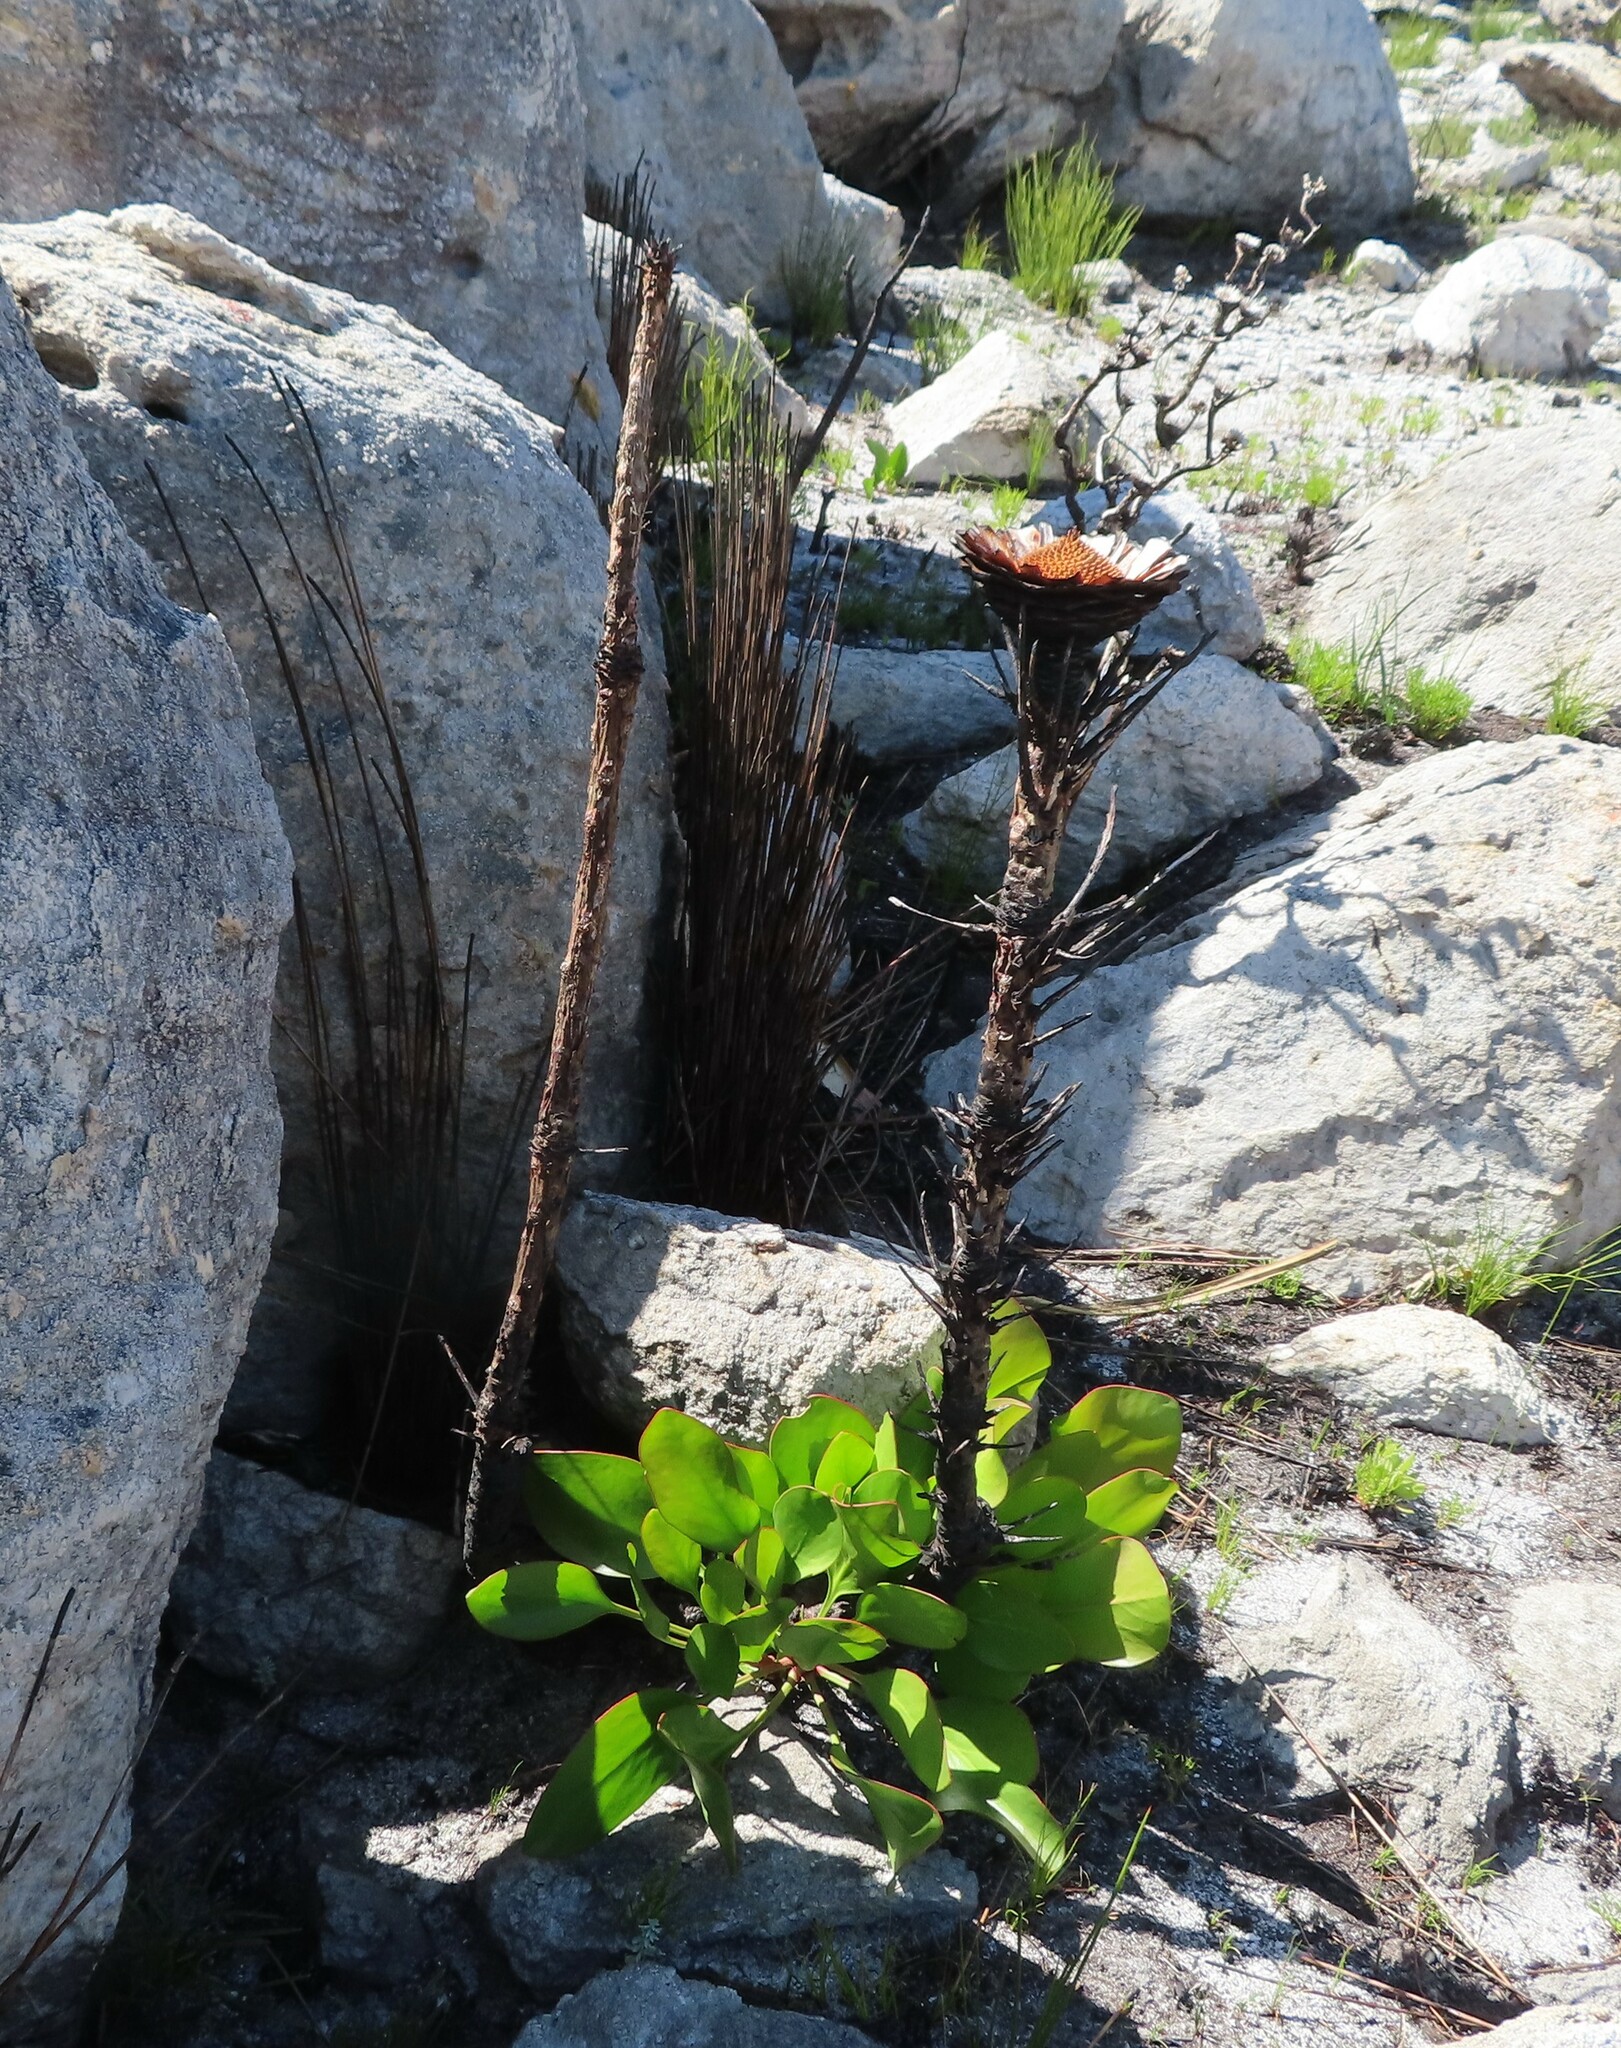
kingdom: Plantae
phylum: Tracheophyta
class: Magnoliopsida
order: Proteales
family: Proteaceae
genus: Protea
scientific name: Protea cynaroides
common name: King protea
